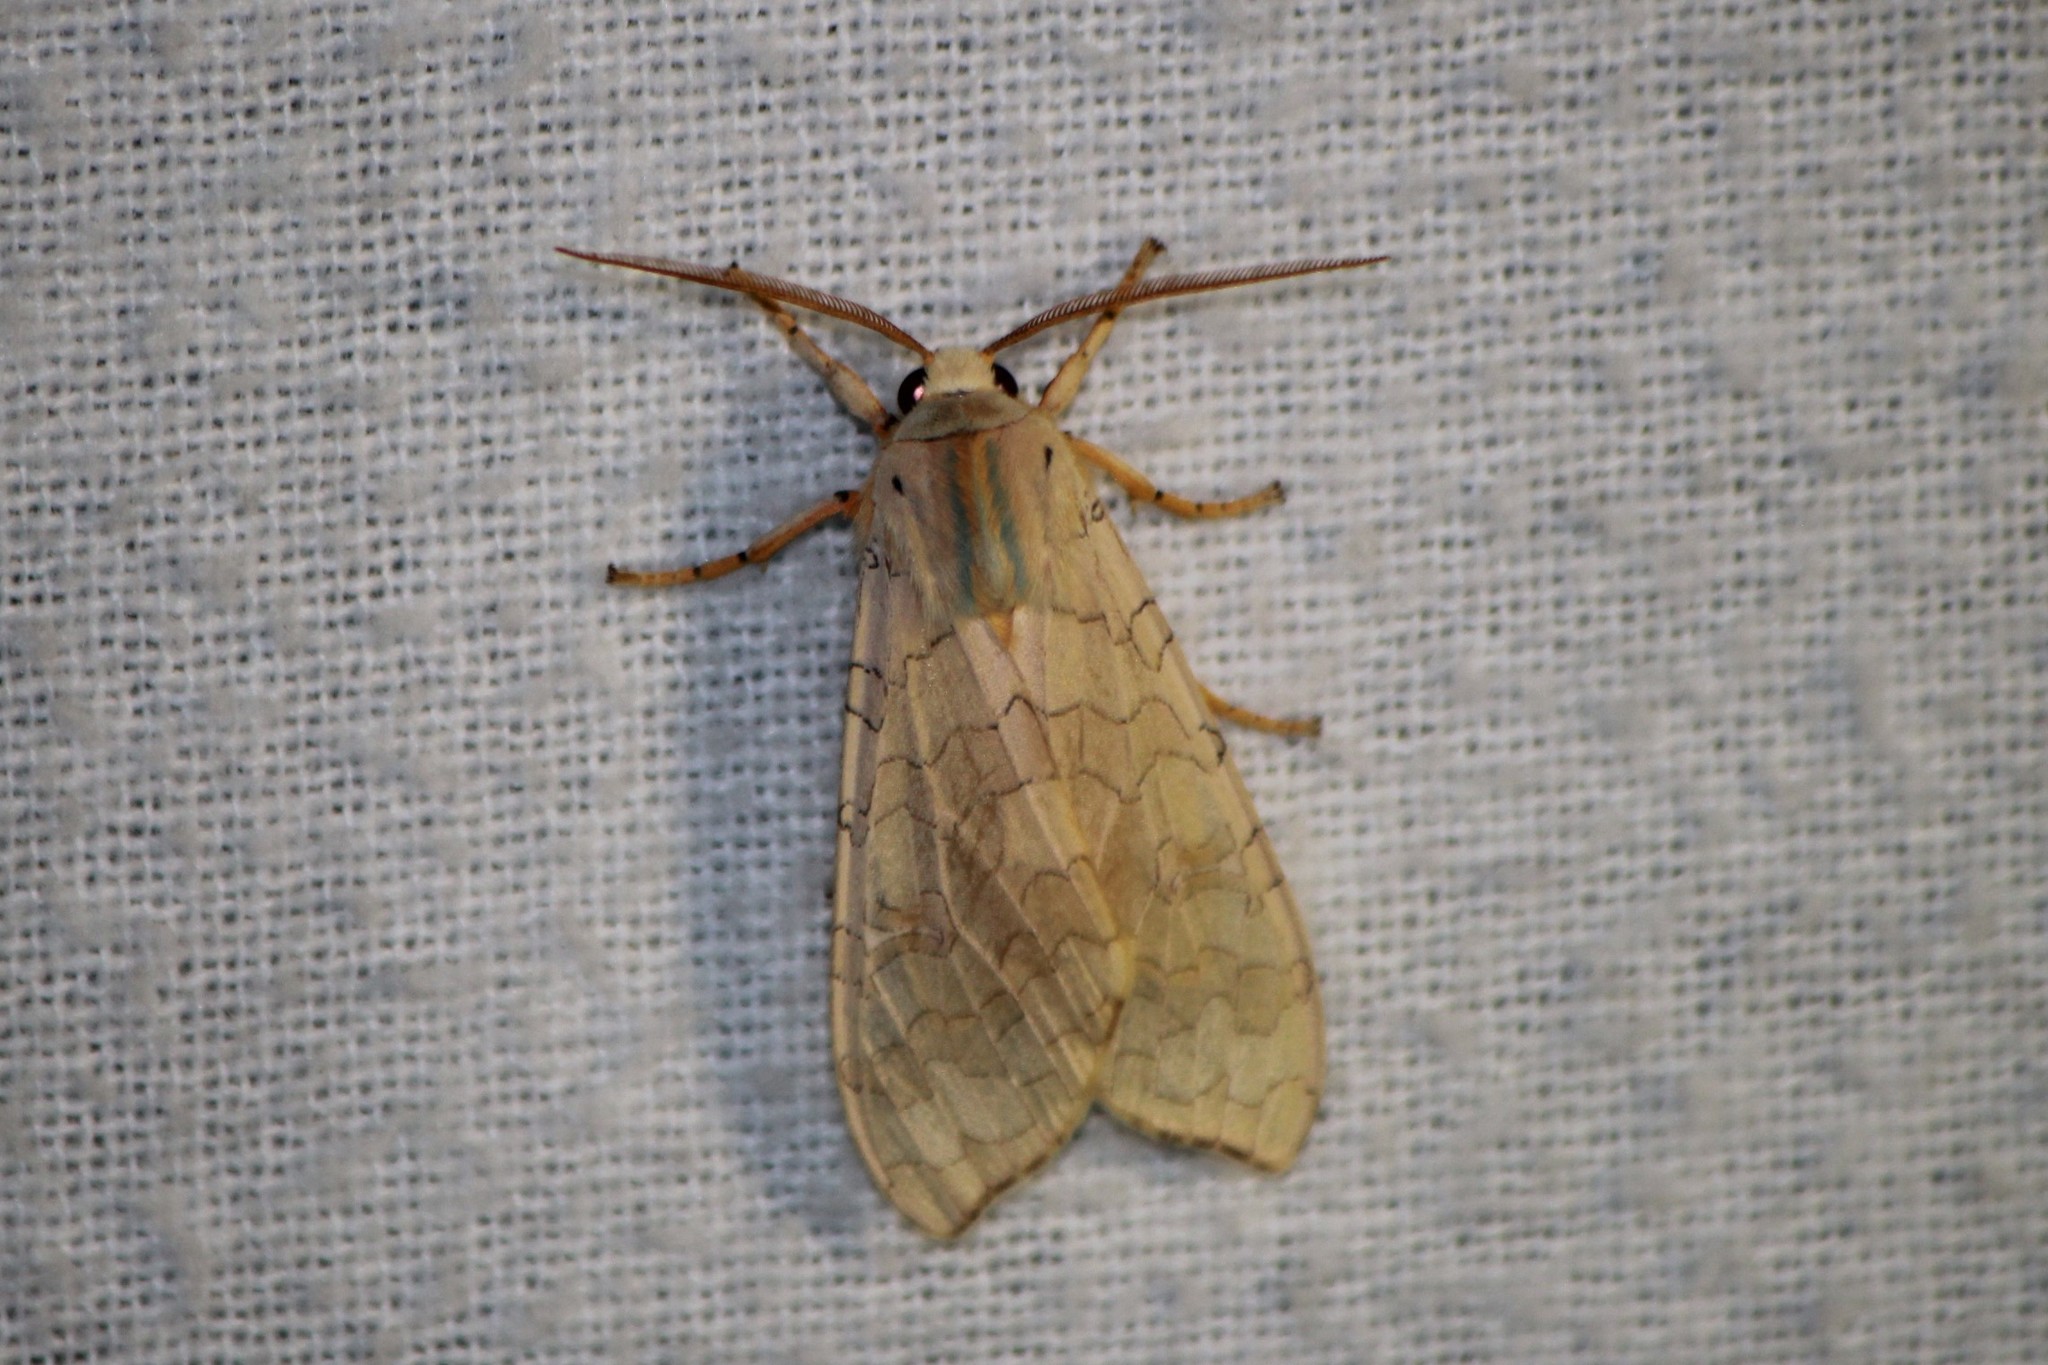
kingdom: Animalia
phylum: Arthropoda
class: Insecta
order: Lepidoptera
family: Erebidae
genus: Halysidota
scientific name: Halysidota tessellaris
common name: Banded tussock moth
